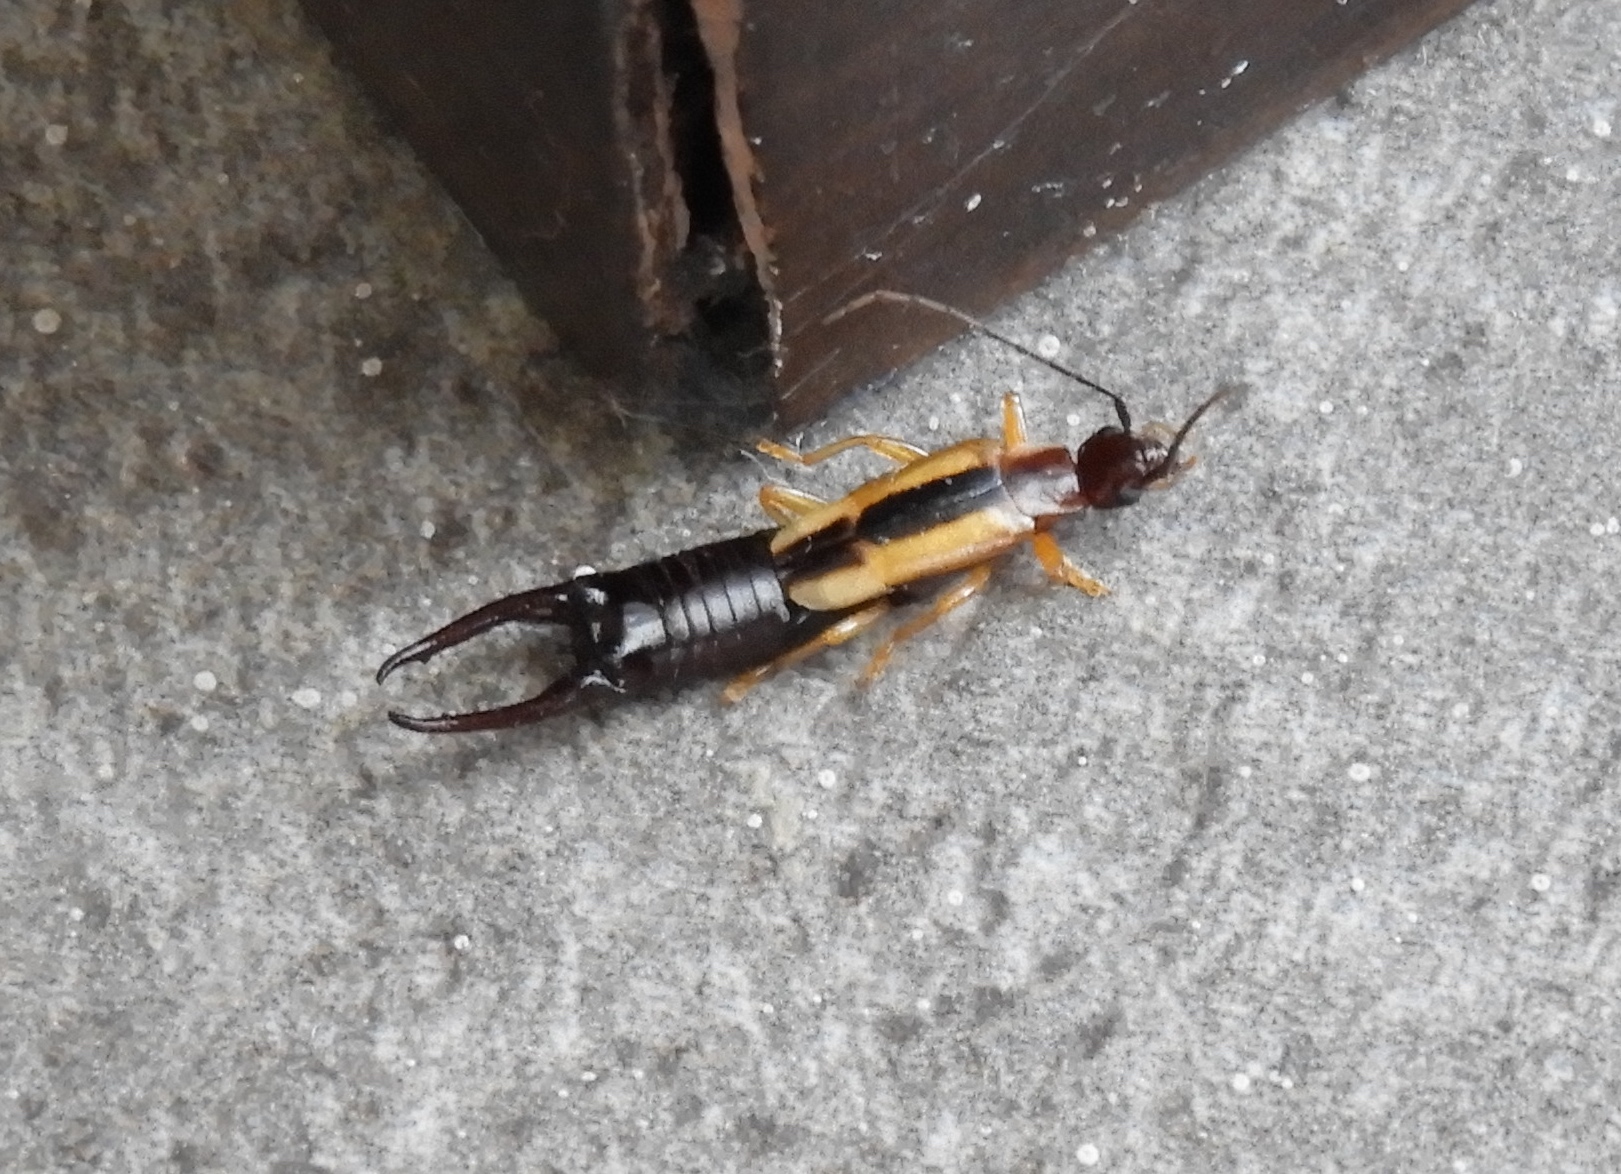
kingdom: Animalia
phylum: Arthropoda
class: Insecta
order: Dermaptera
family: Forficulidae
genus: Doru
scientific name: Doru
